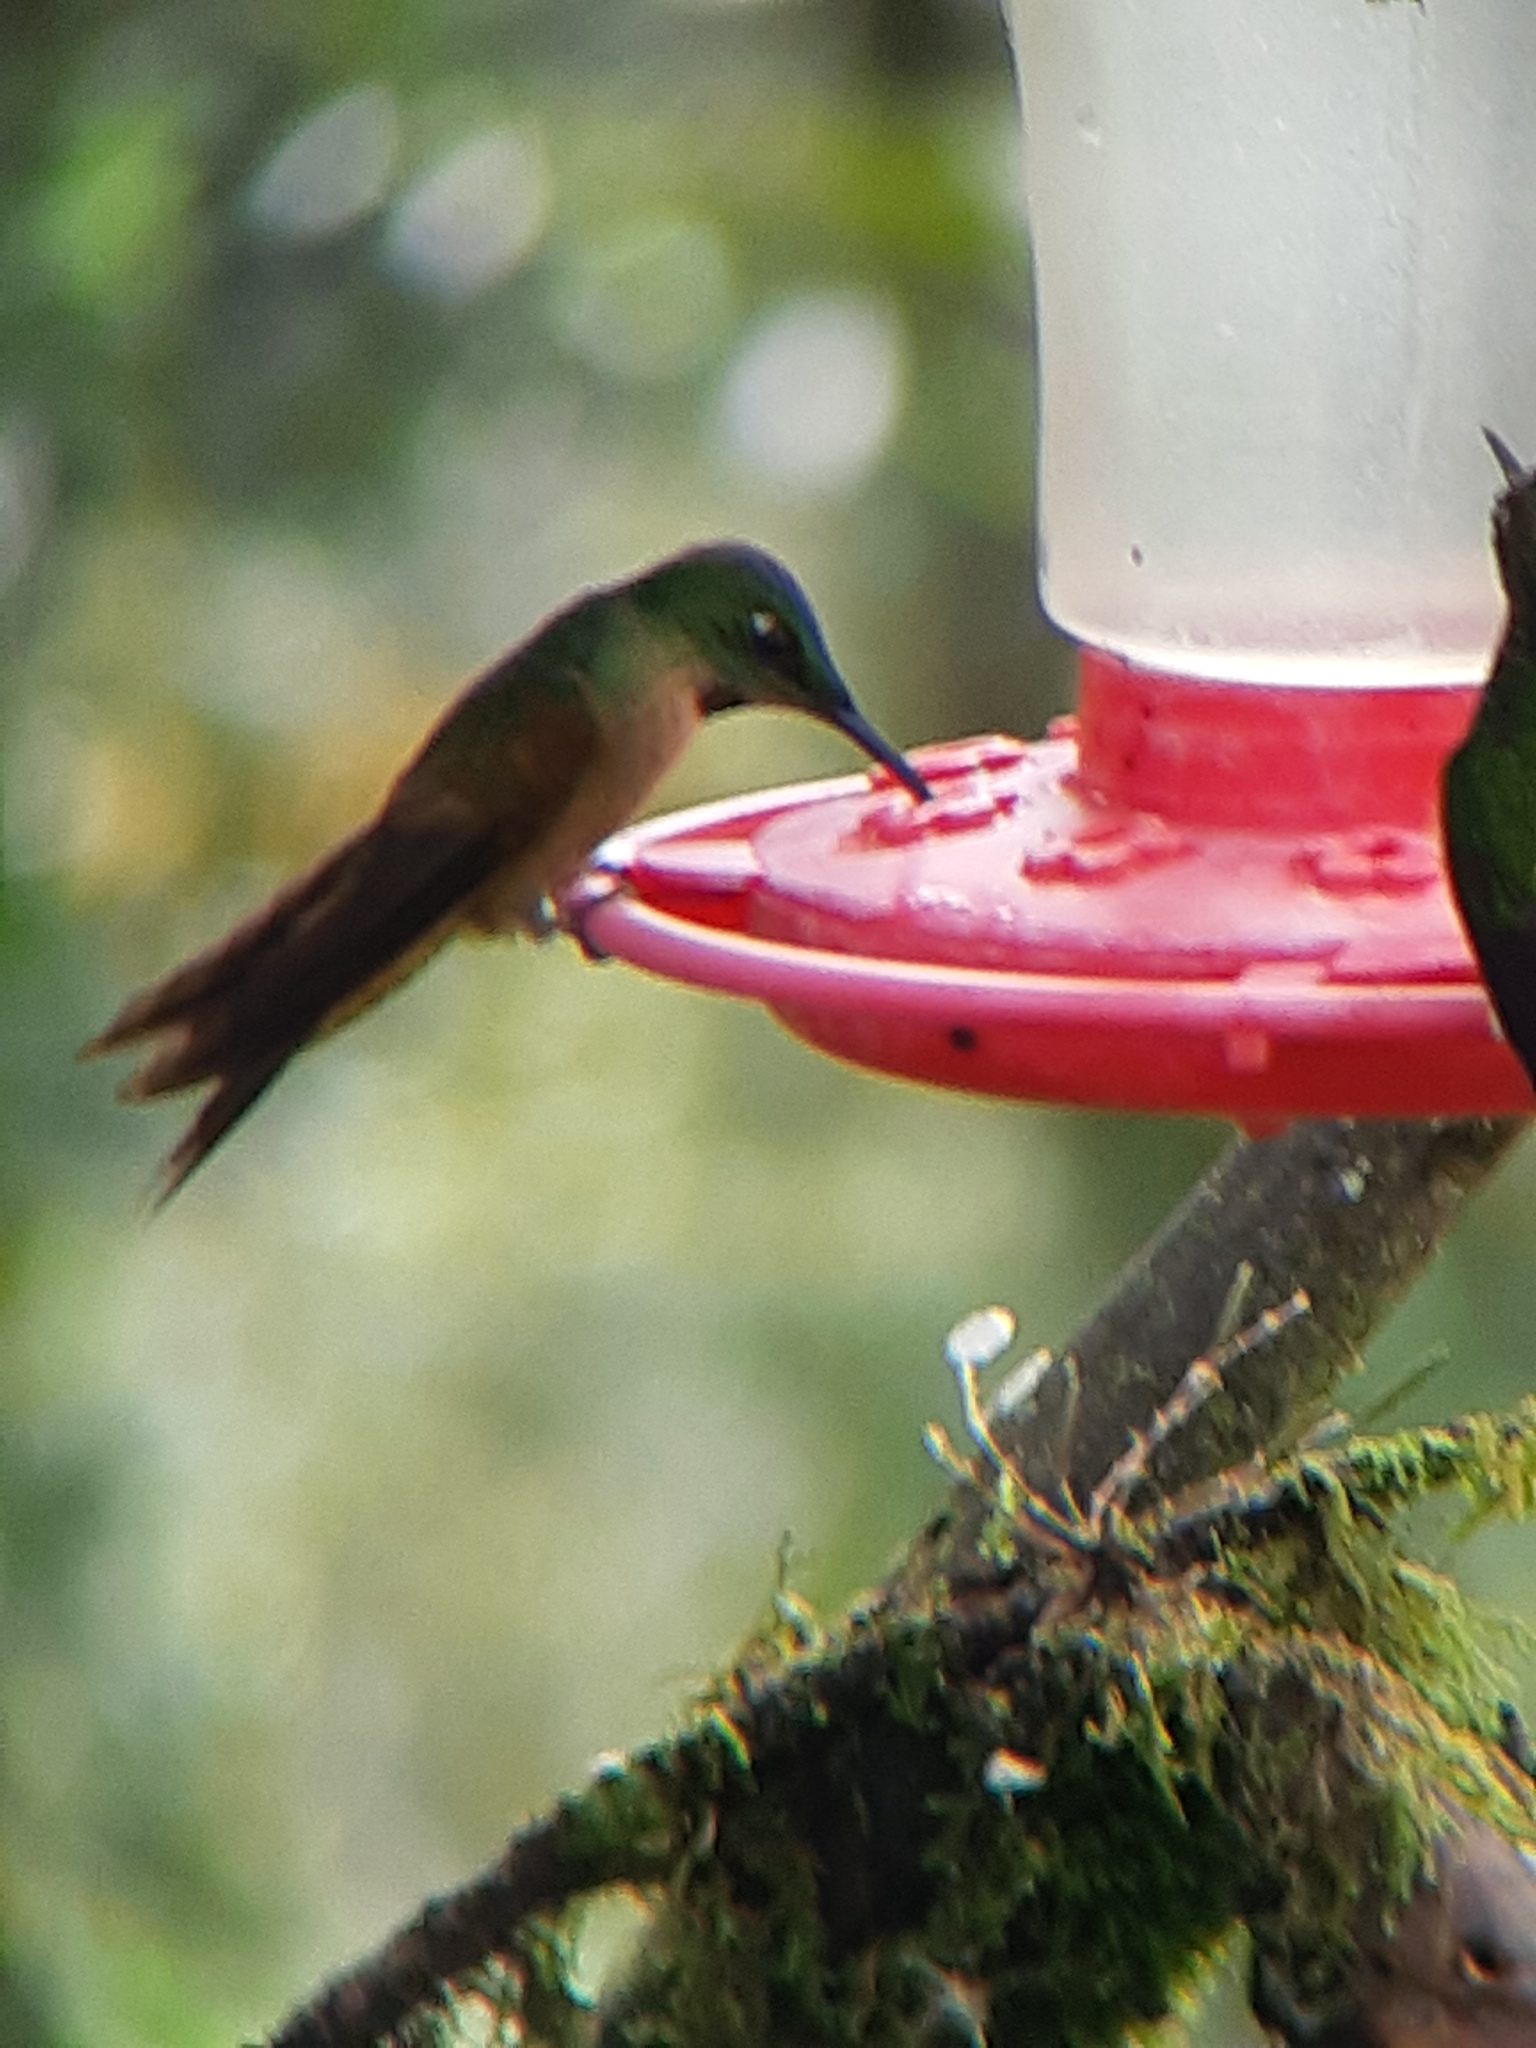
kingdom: Animalia
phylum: Chordata
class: Aves
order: Apodiformes
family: Trochilidae
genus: Heliodoxa
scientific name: Heliodoxa rubinoides
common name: Fawn-breasted brilliant
